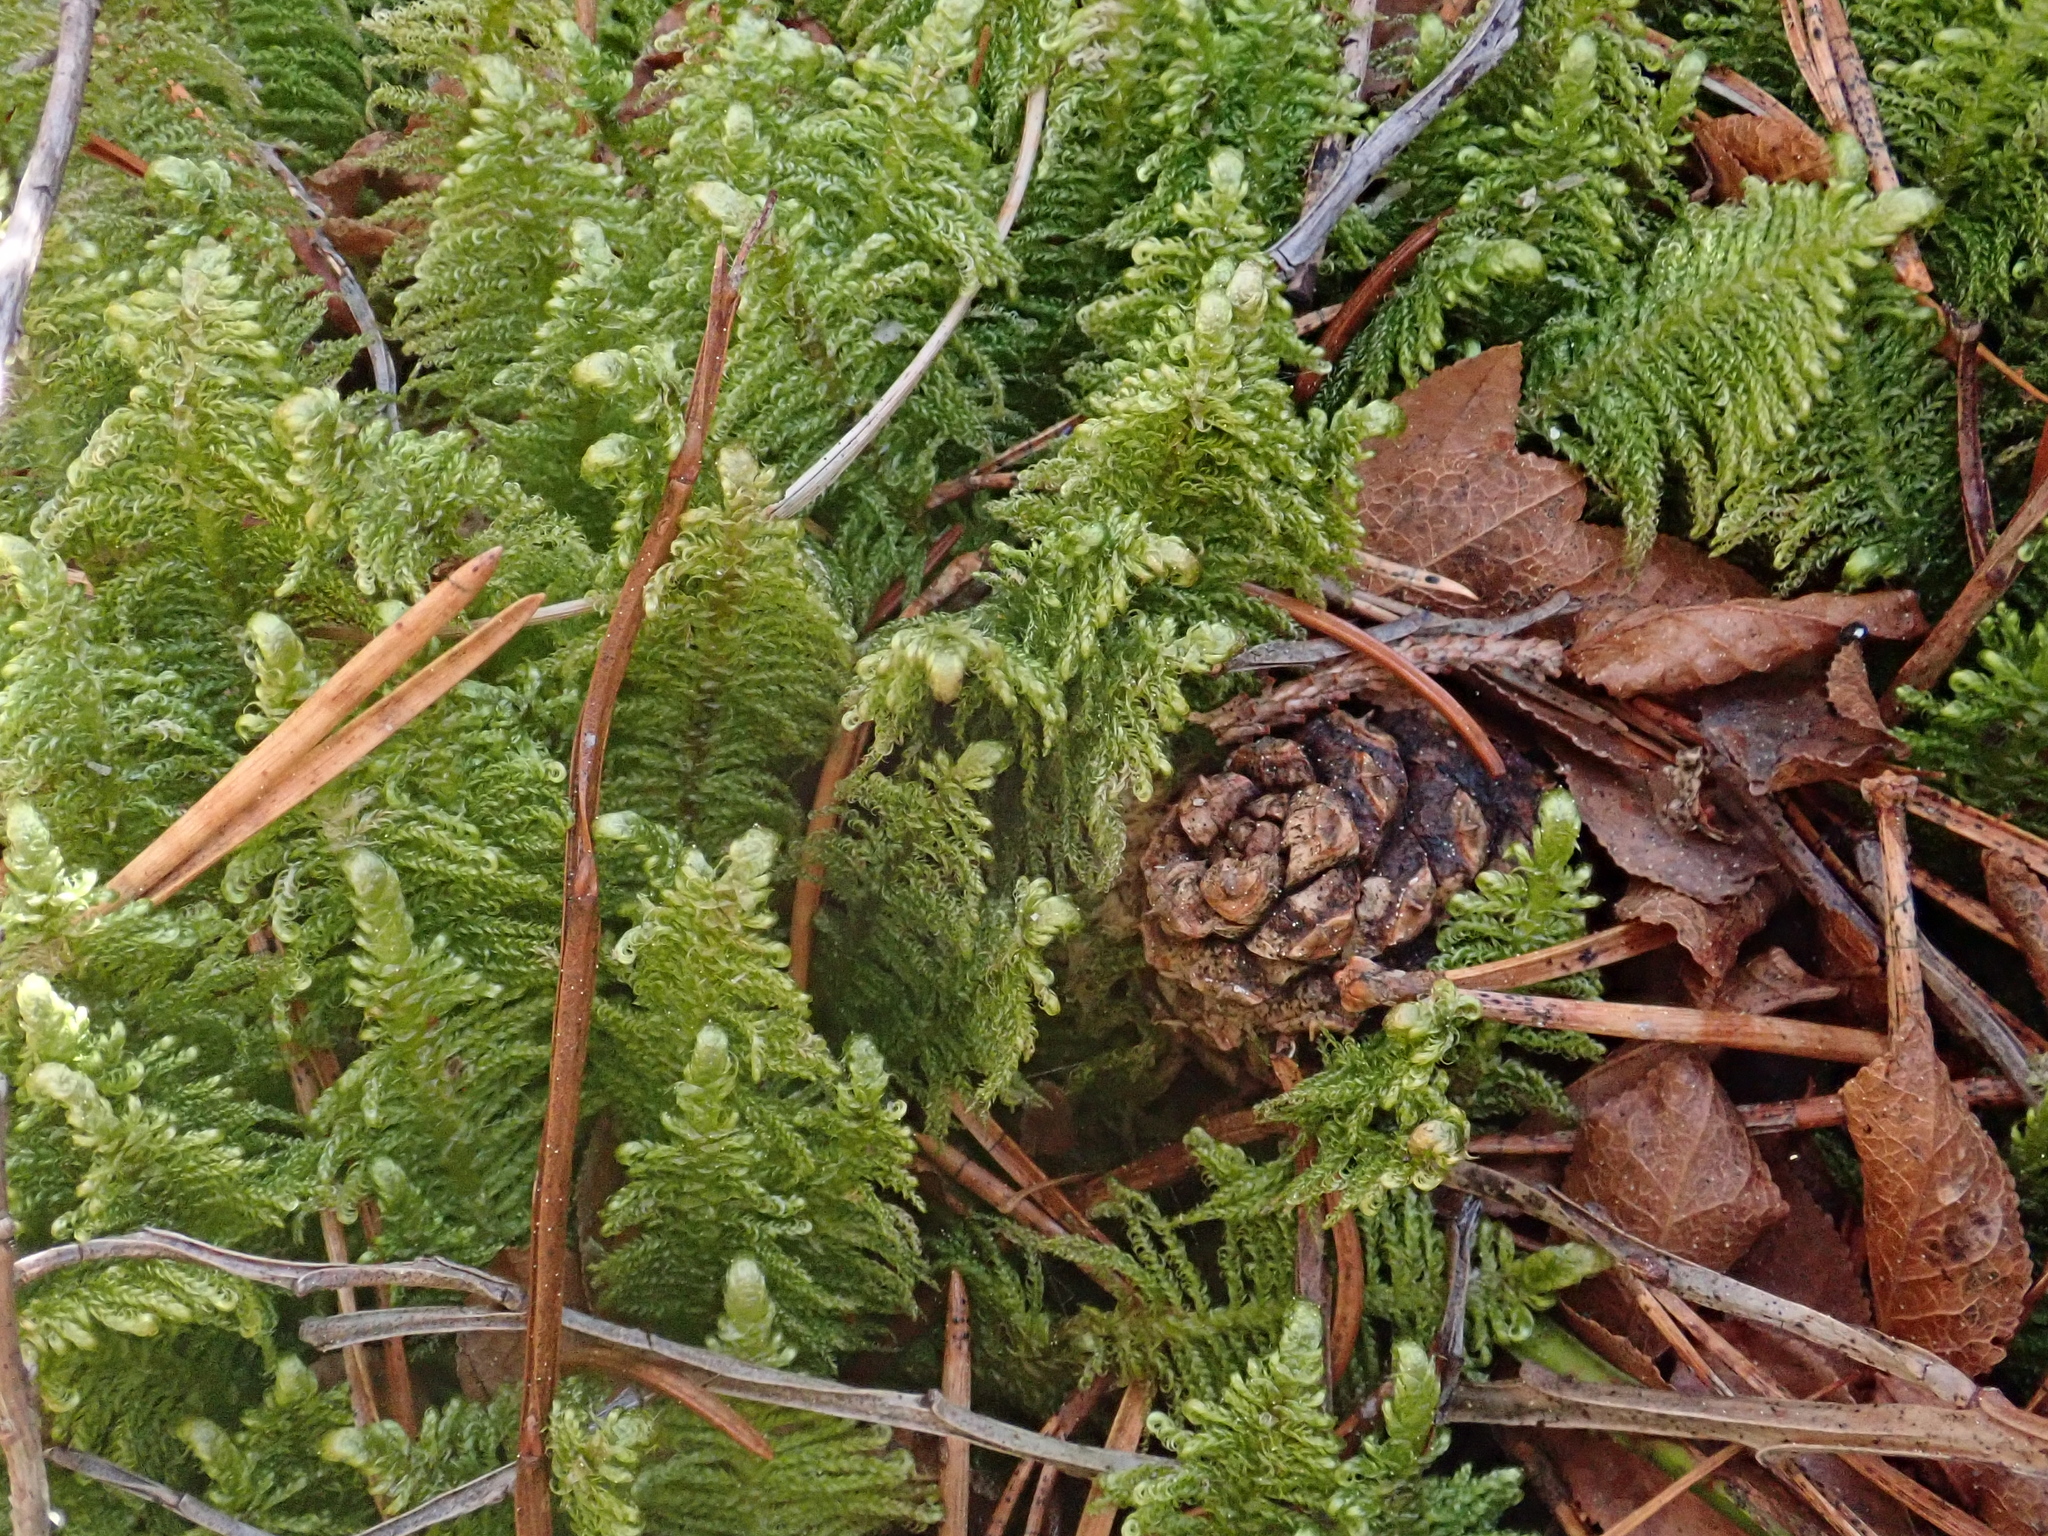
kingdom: Plantae
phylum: Bryophyta
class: Bryopsida
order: Hypnales
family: Pylaisiaceae
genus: Ptilium
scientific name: Ptilium crista-castrensis
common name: Knight's plume moss
